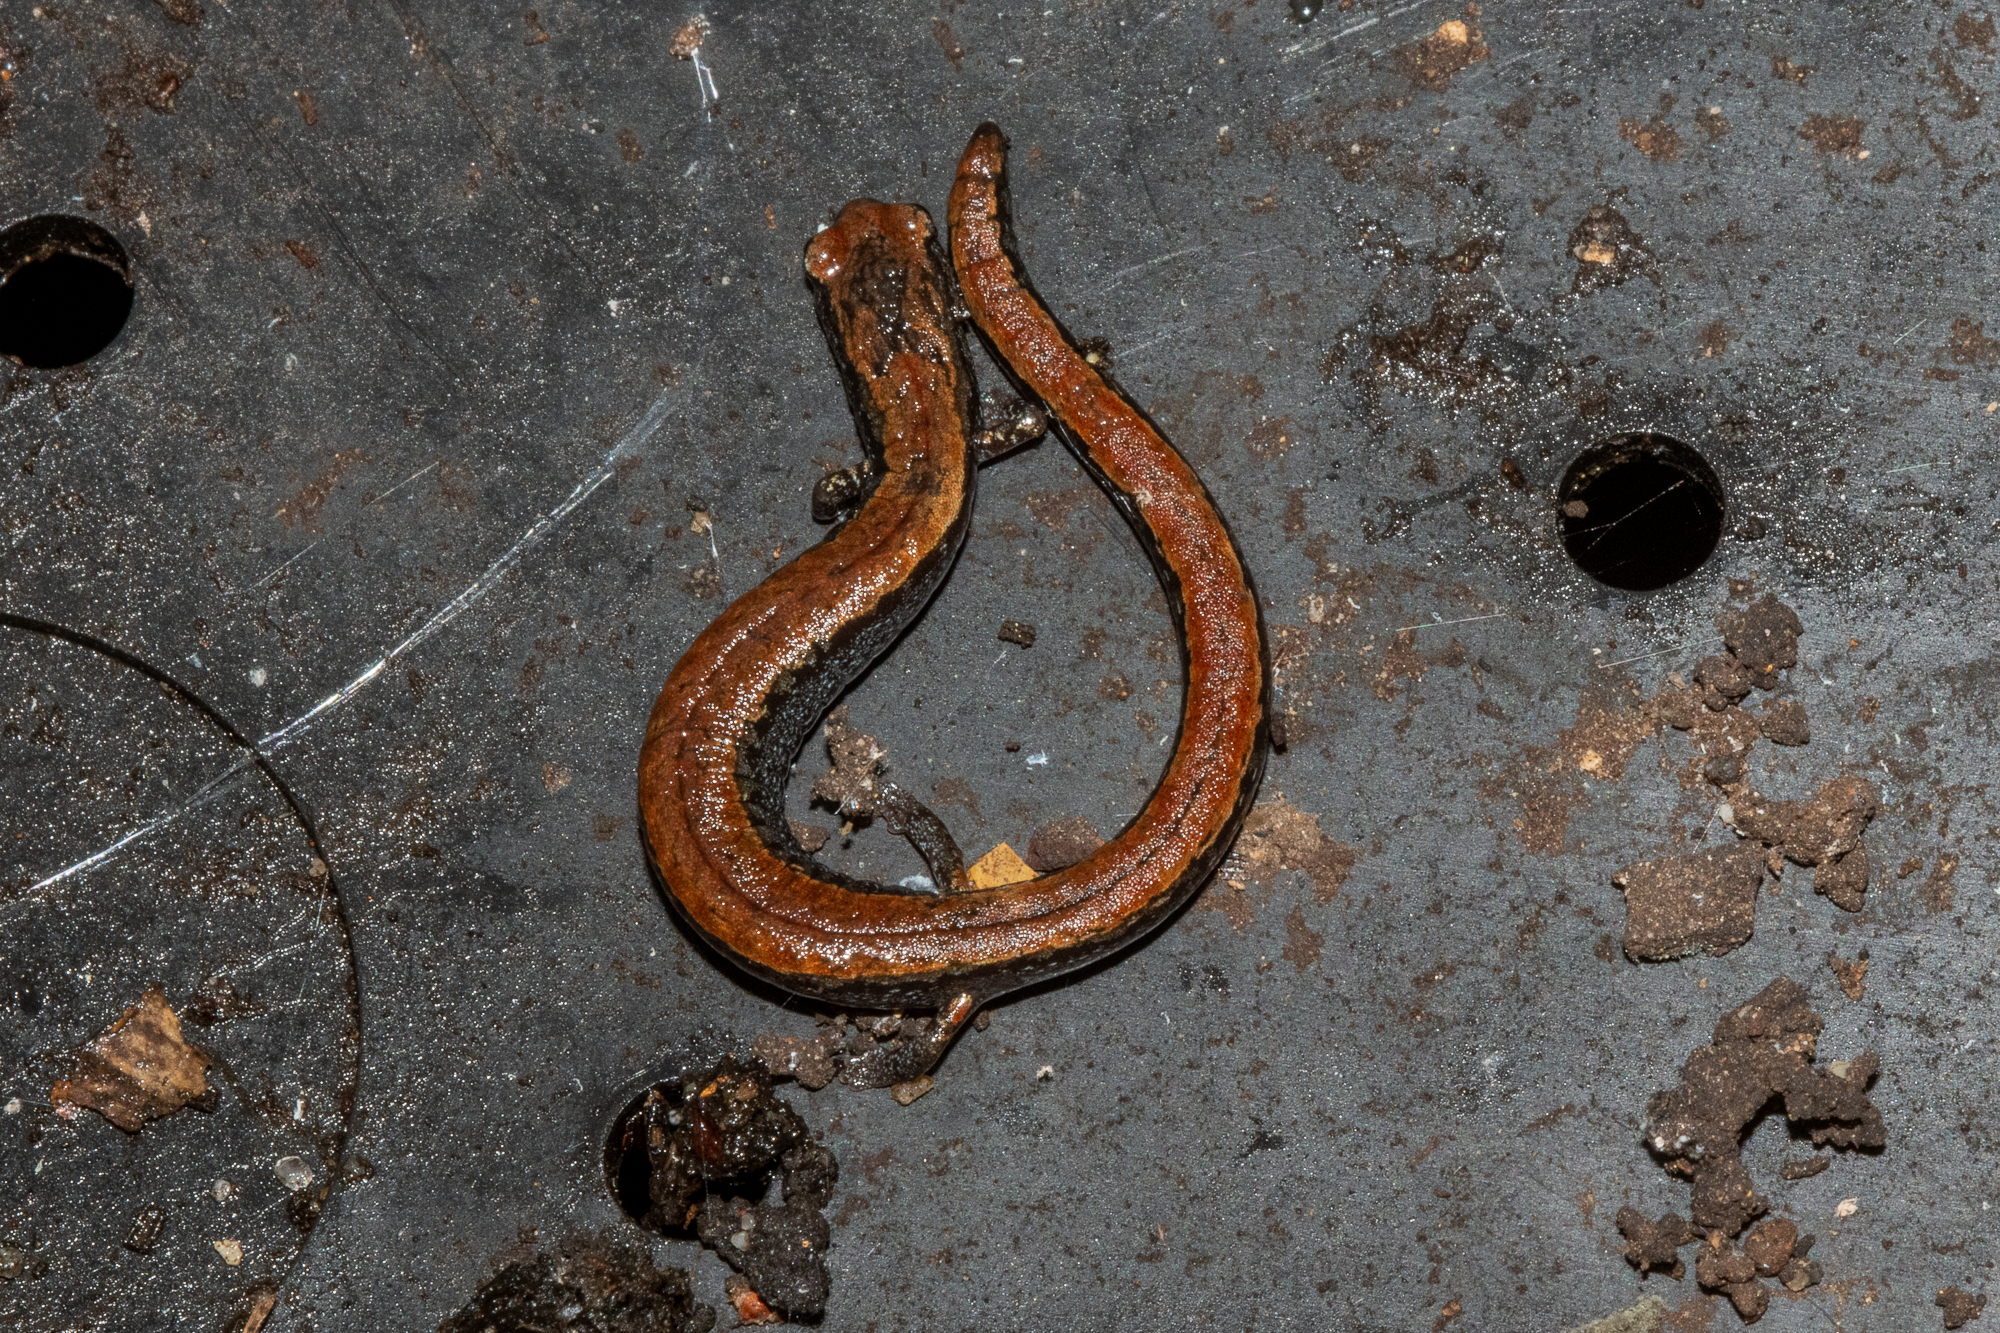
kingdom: Animalia
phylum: Chordata
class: Amphibia
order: Caudata
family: Plethodontidae
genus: Batrachoseps
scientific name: Batrachoseps attenuatus
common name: California slender salamander
